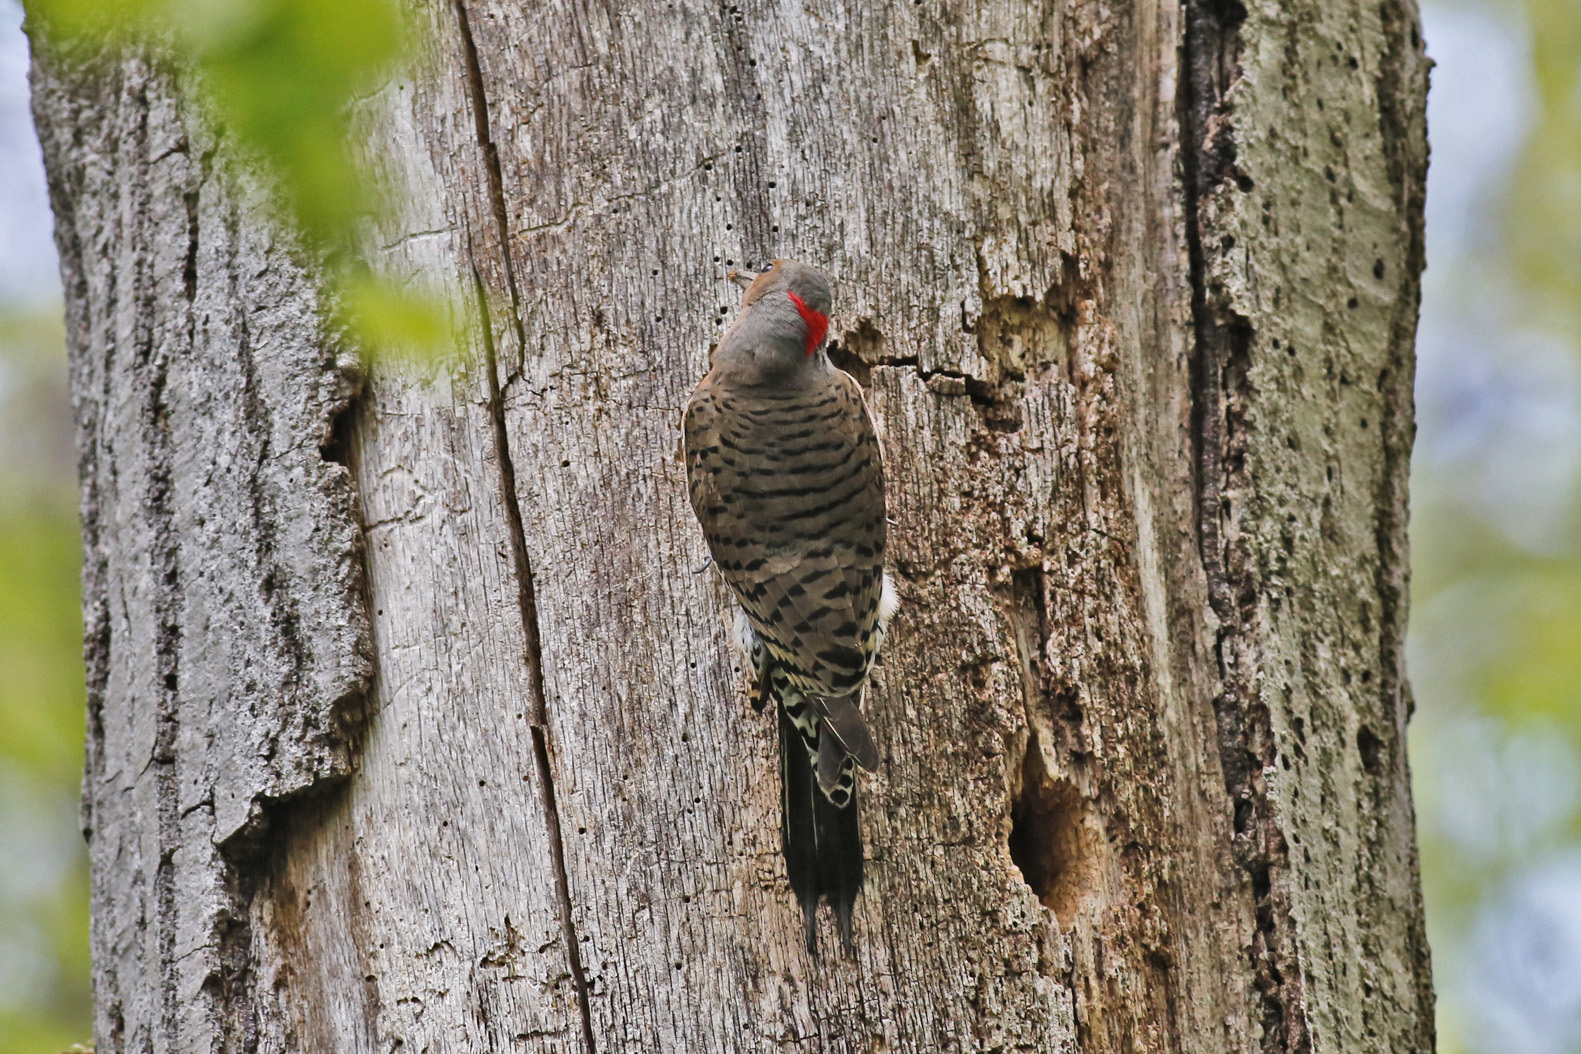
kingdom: Animalia
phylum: Chordata
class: Aves
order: Piciformes
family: Picidae
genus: Colaptes
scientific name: Colaptes auratus
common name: Northern flicker
